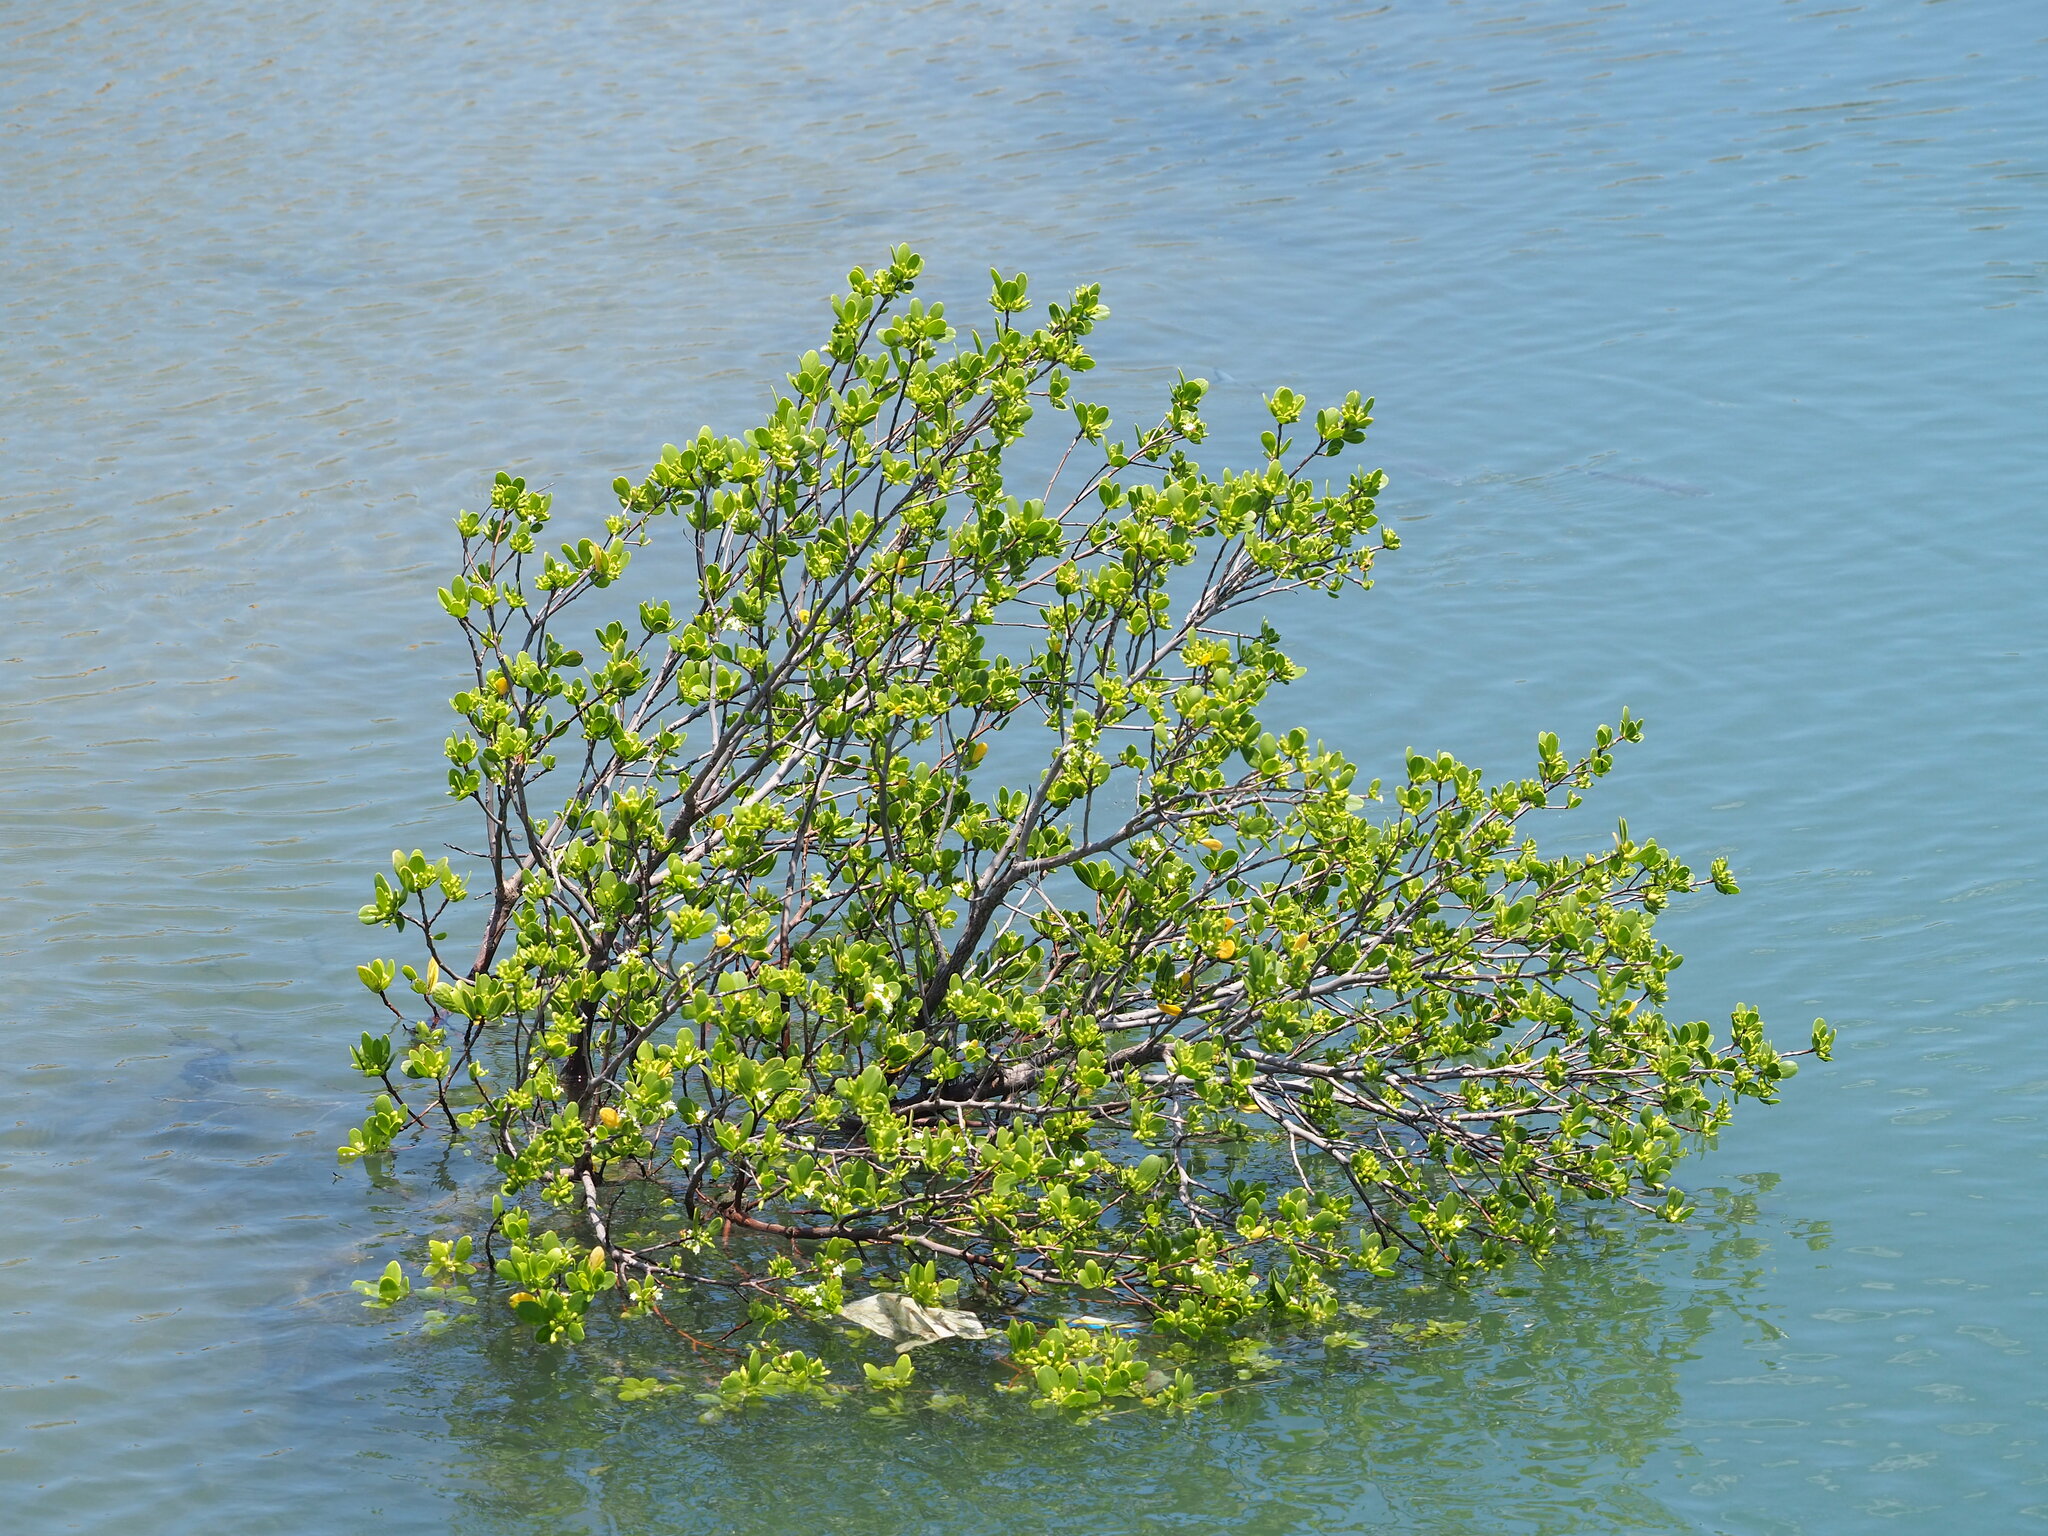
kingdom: Plantae
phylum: Tracheophyta
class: Magnoliopsida
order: Myrtales
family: Combretaceae
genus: Lumnitzera
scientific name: Lumnitzera racemosa
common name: White-flowered black mangrove
